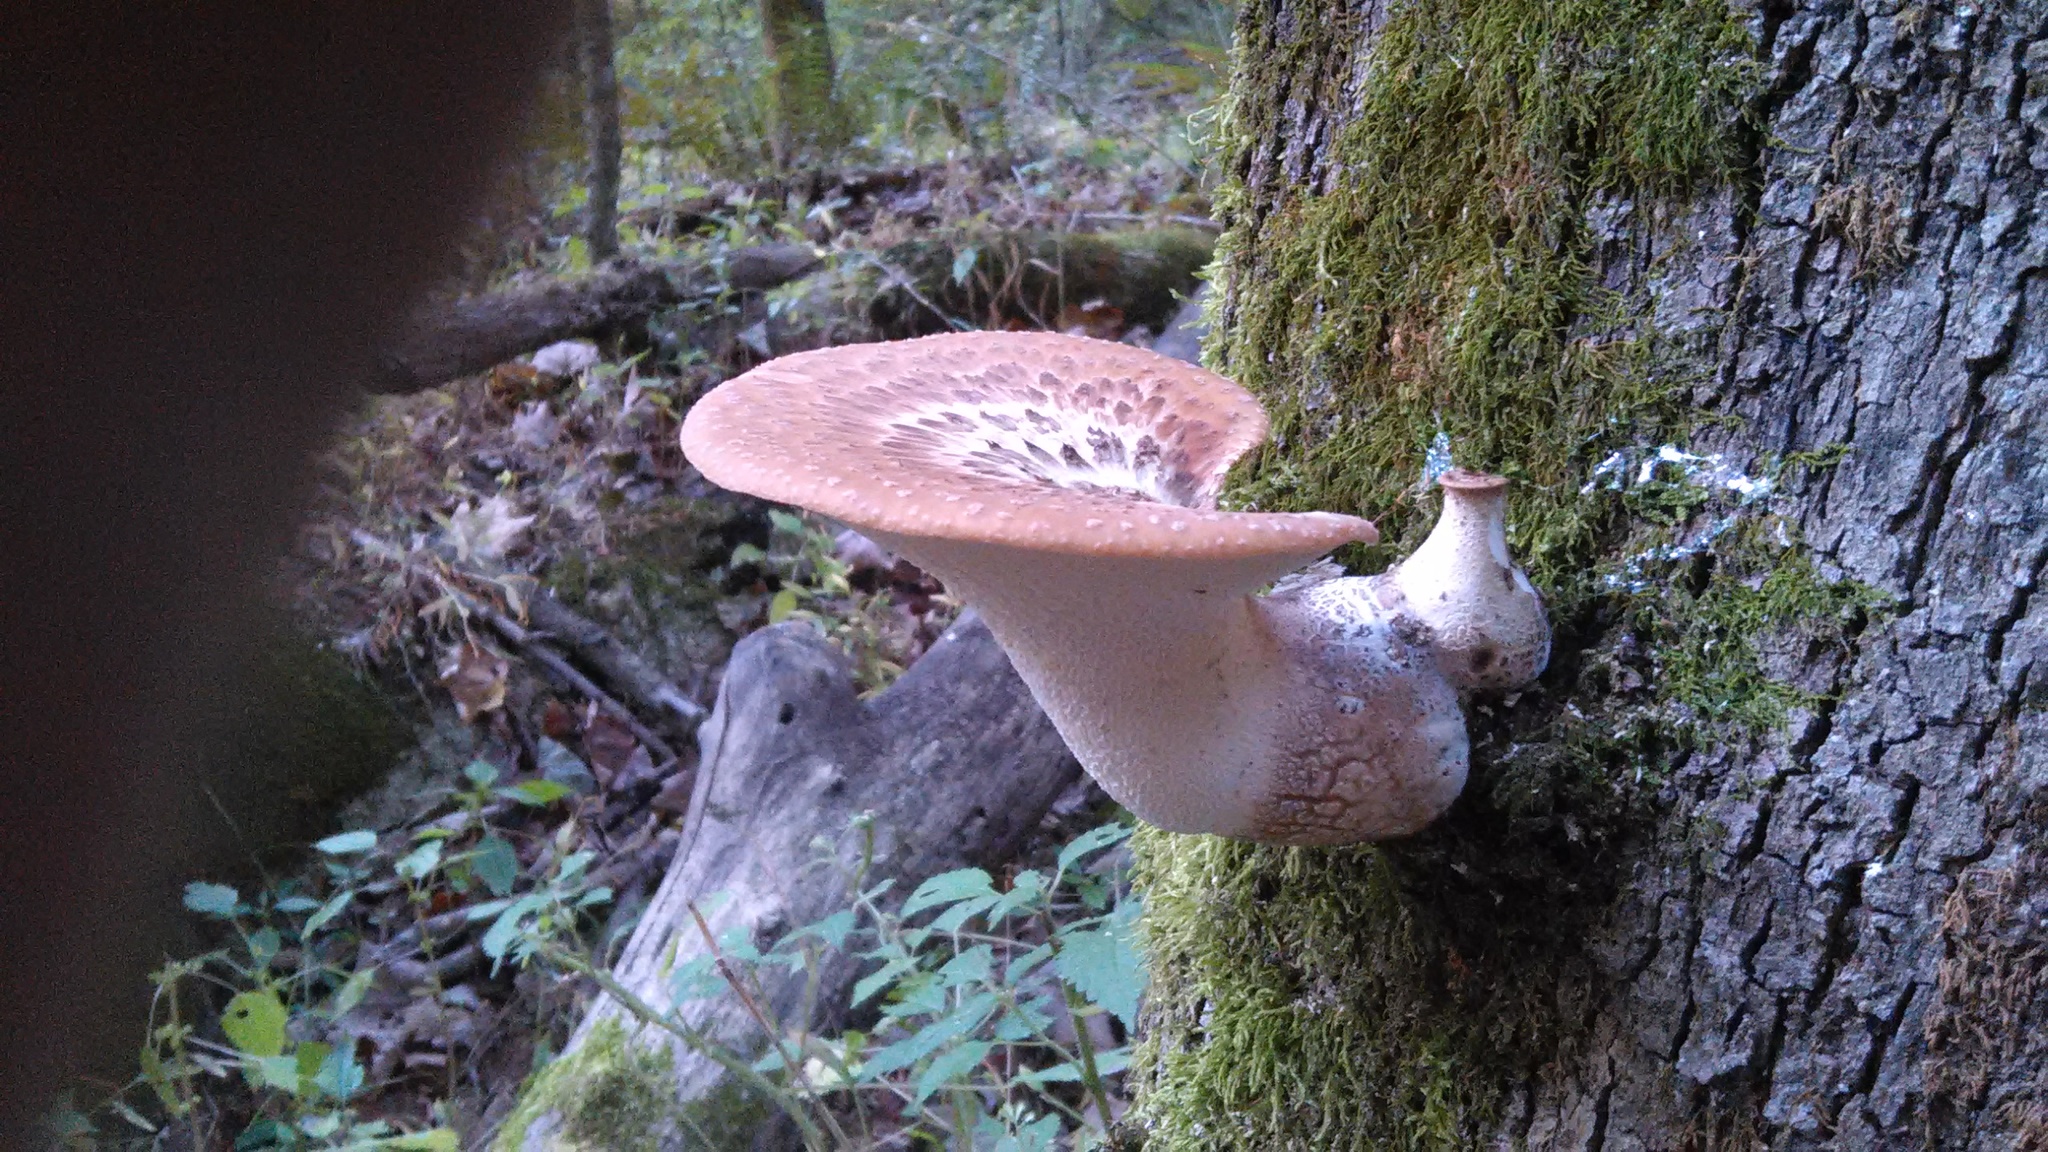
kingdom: Fungi
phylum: Basidiomycota
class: Agaricomycetes
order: Polyporales
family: Polyporaceae
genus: Cerioporus
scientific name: Cerioporus squamosus
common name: Dryad's saddle
